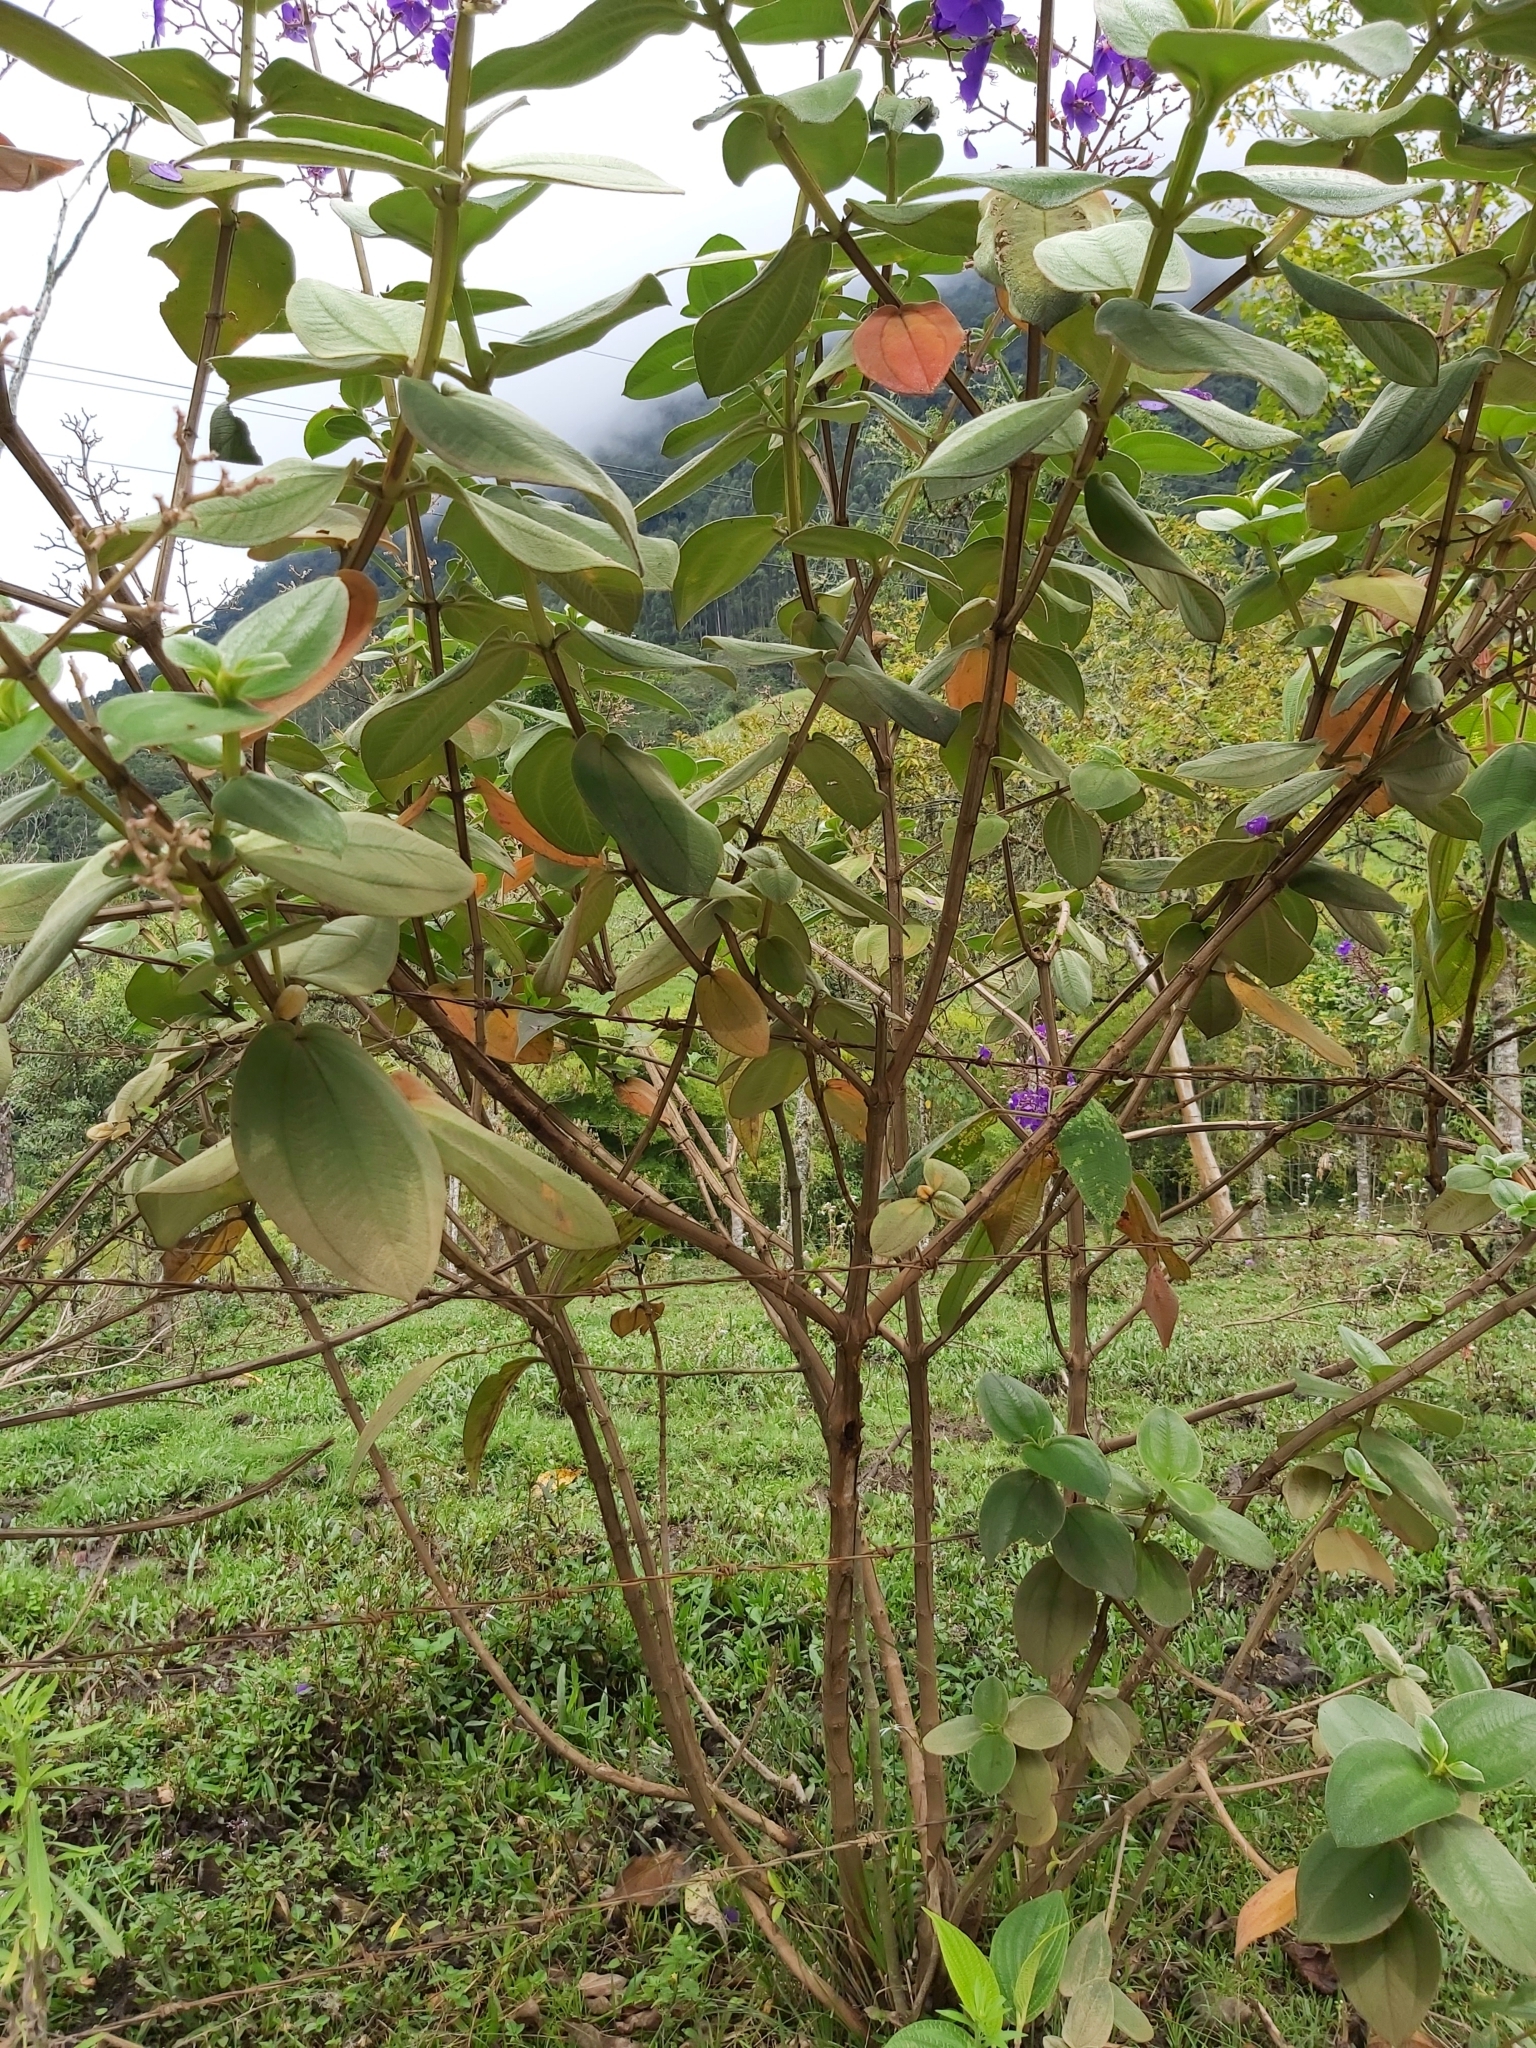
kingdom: Plantae
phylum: Tracheophyta
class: Magnoliopsida
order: Myrtales
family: Melastomataceae
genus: Pleroma
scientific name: Pleroma heteromallum
